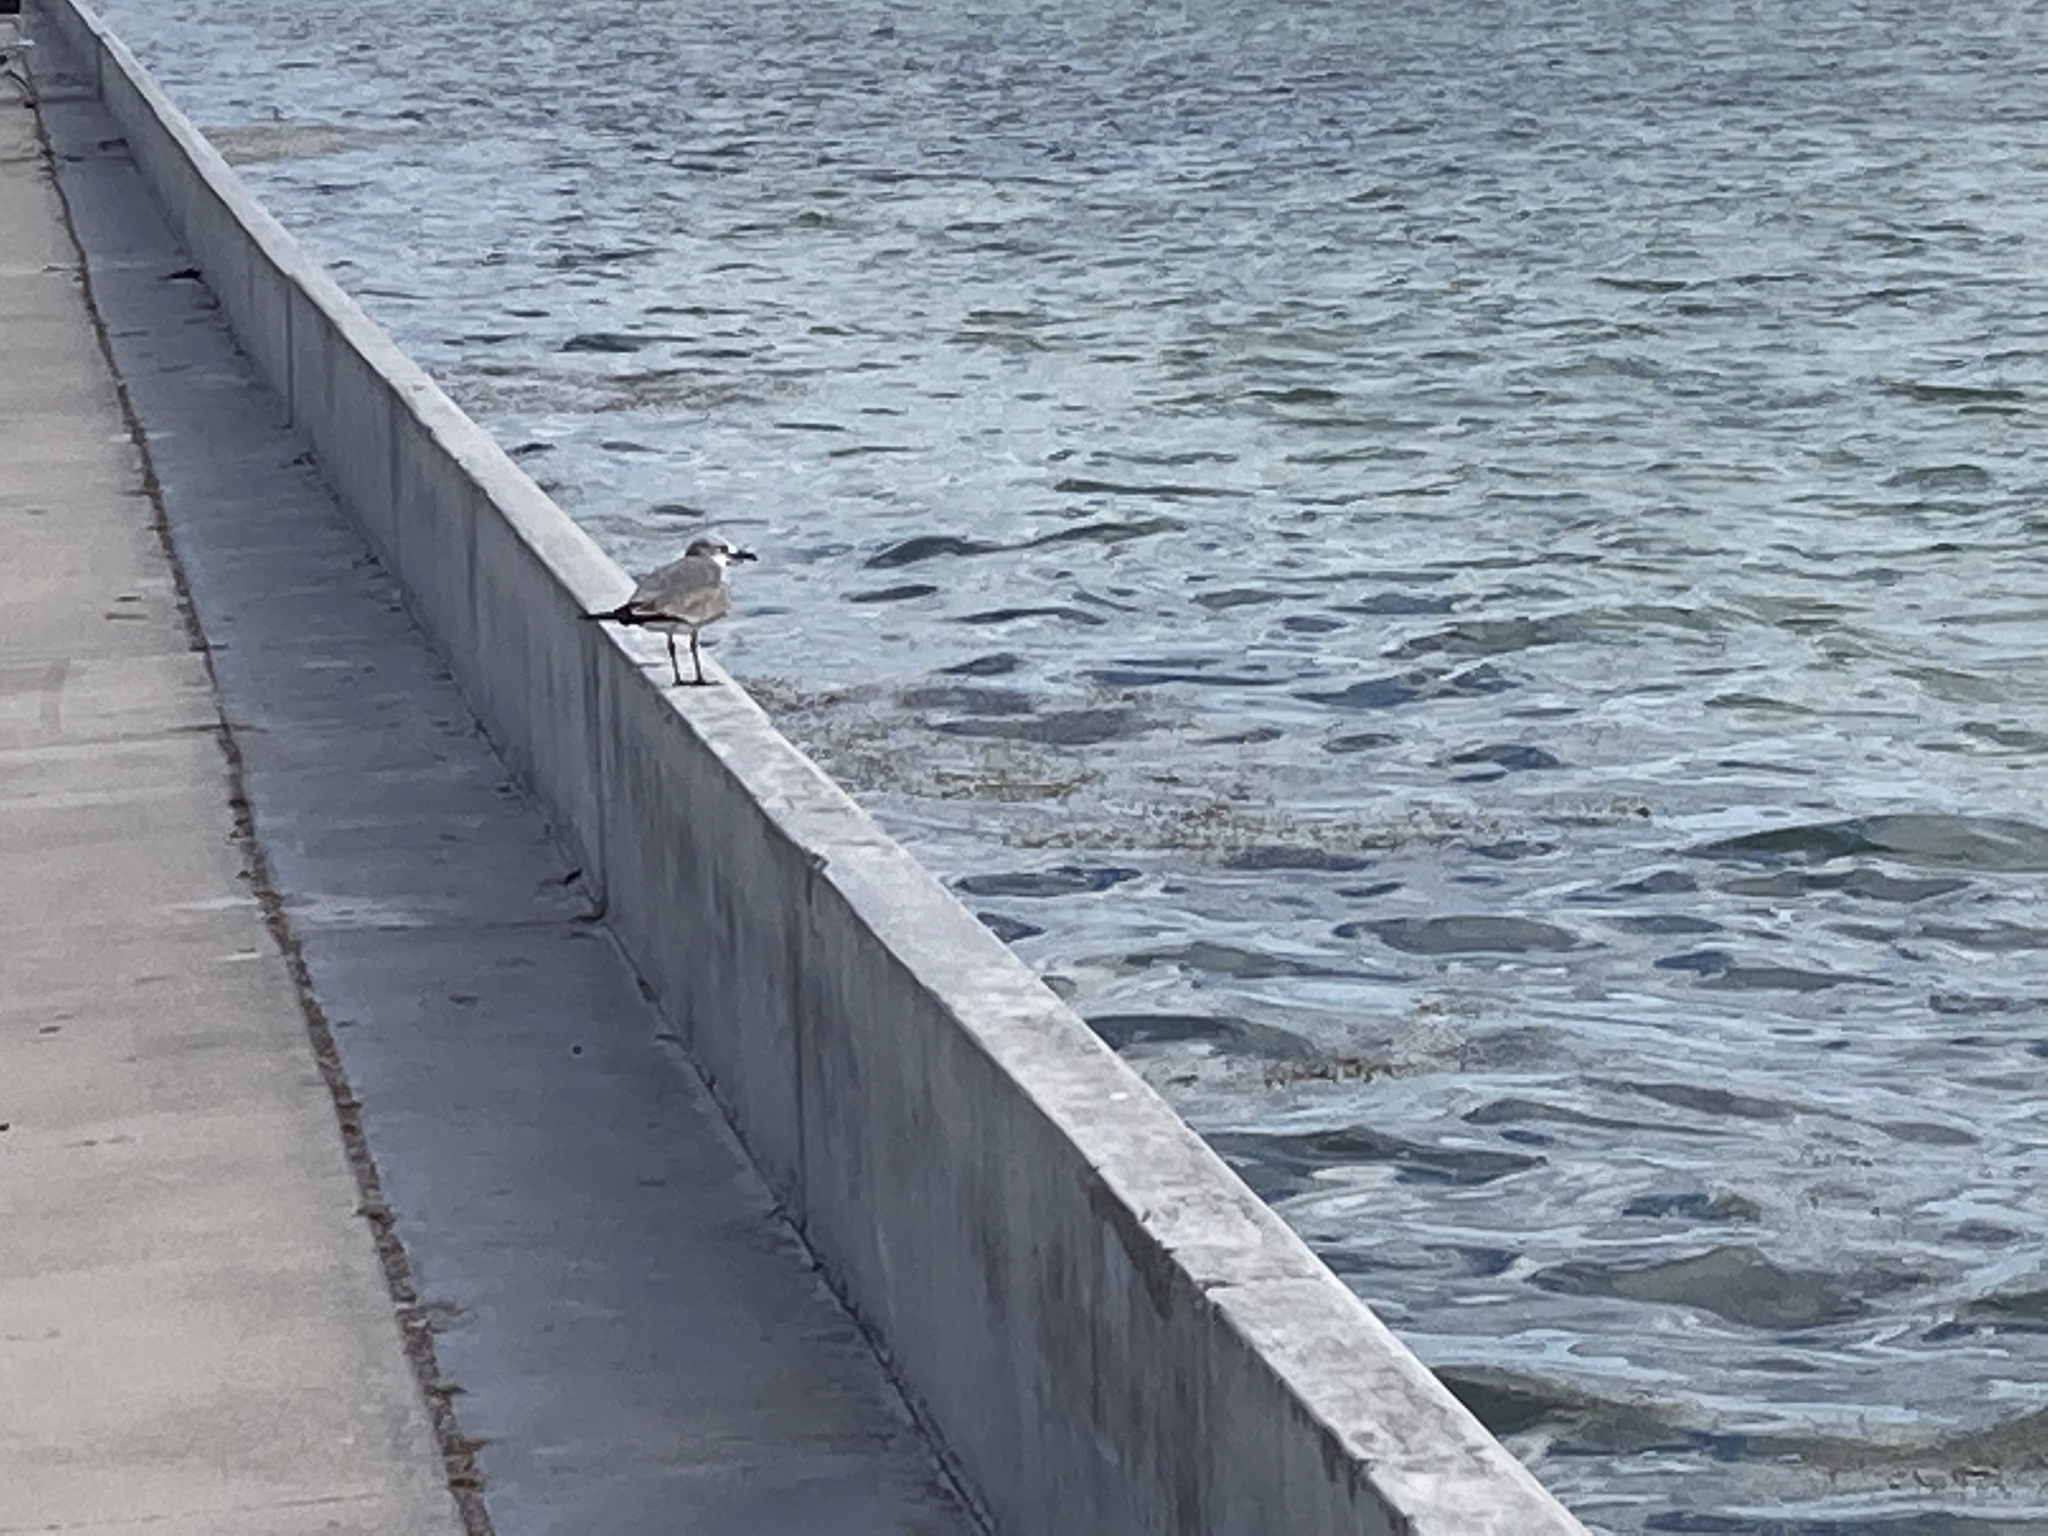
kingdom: Animalia
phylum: Chordata
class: Aves
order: Charadriiformes
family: Laridae
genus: Leucophaeus
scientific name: Leucophaeus atricilla
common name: Laughing gull
